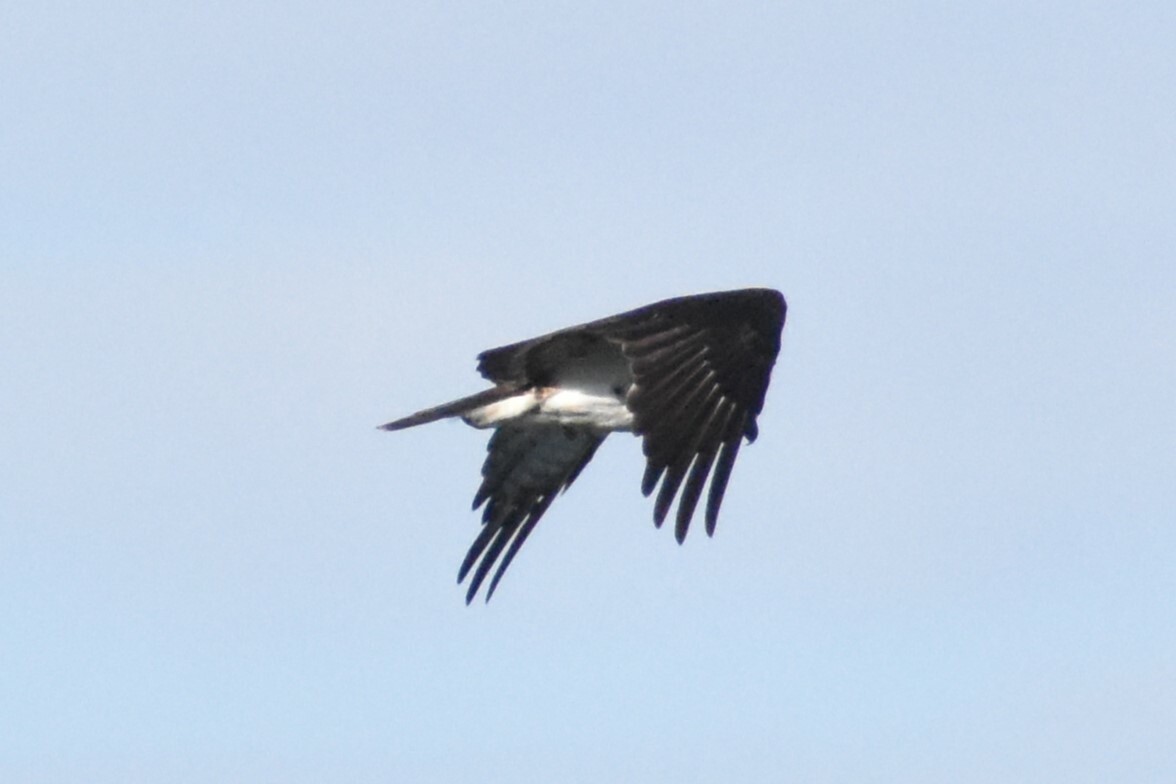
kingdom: Animalia
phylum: Chordata
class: Aves
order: Accipitriformes
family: Pandionidae
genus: Pandion
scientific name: Pandion haliaetus
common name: Osprey
